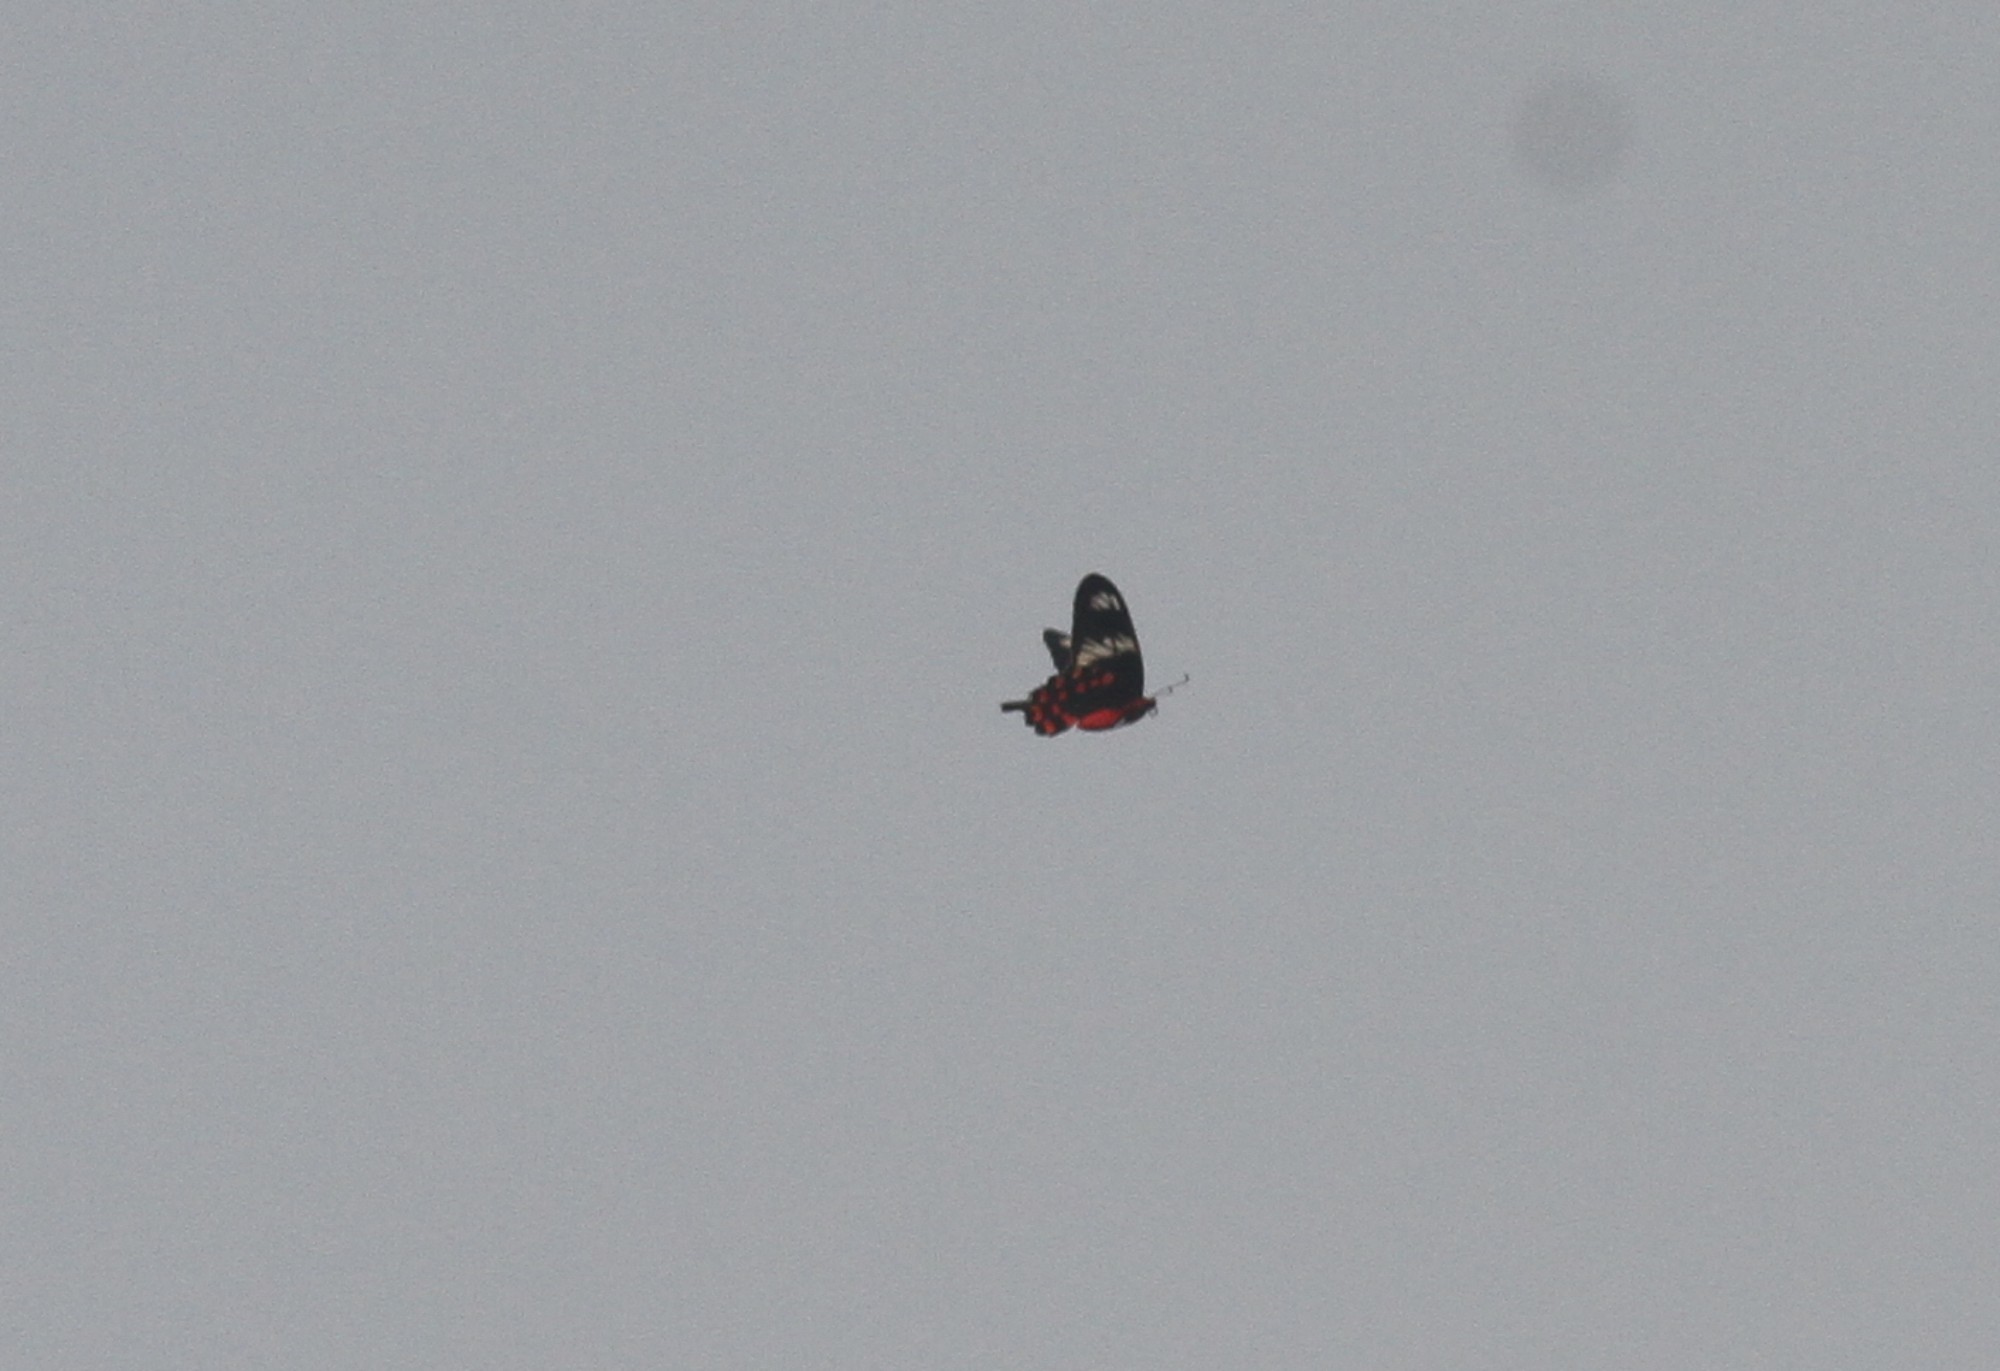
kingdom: Animalia
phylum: Arthropoda
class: Insecta
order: Lepidoptera
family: Papilionidae
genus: Pachliopta
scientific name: Pachliopta hector
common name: Crimson rose
